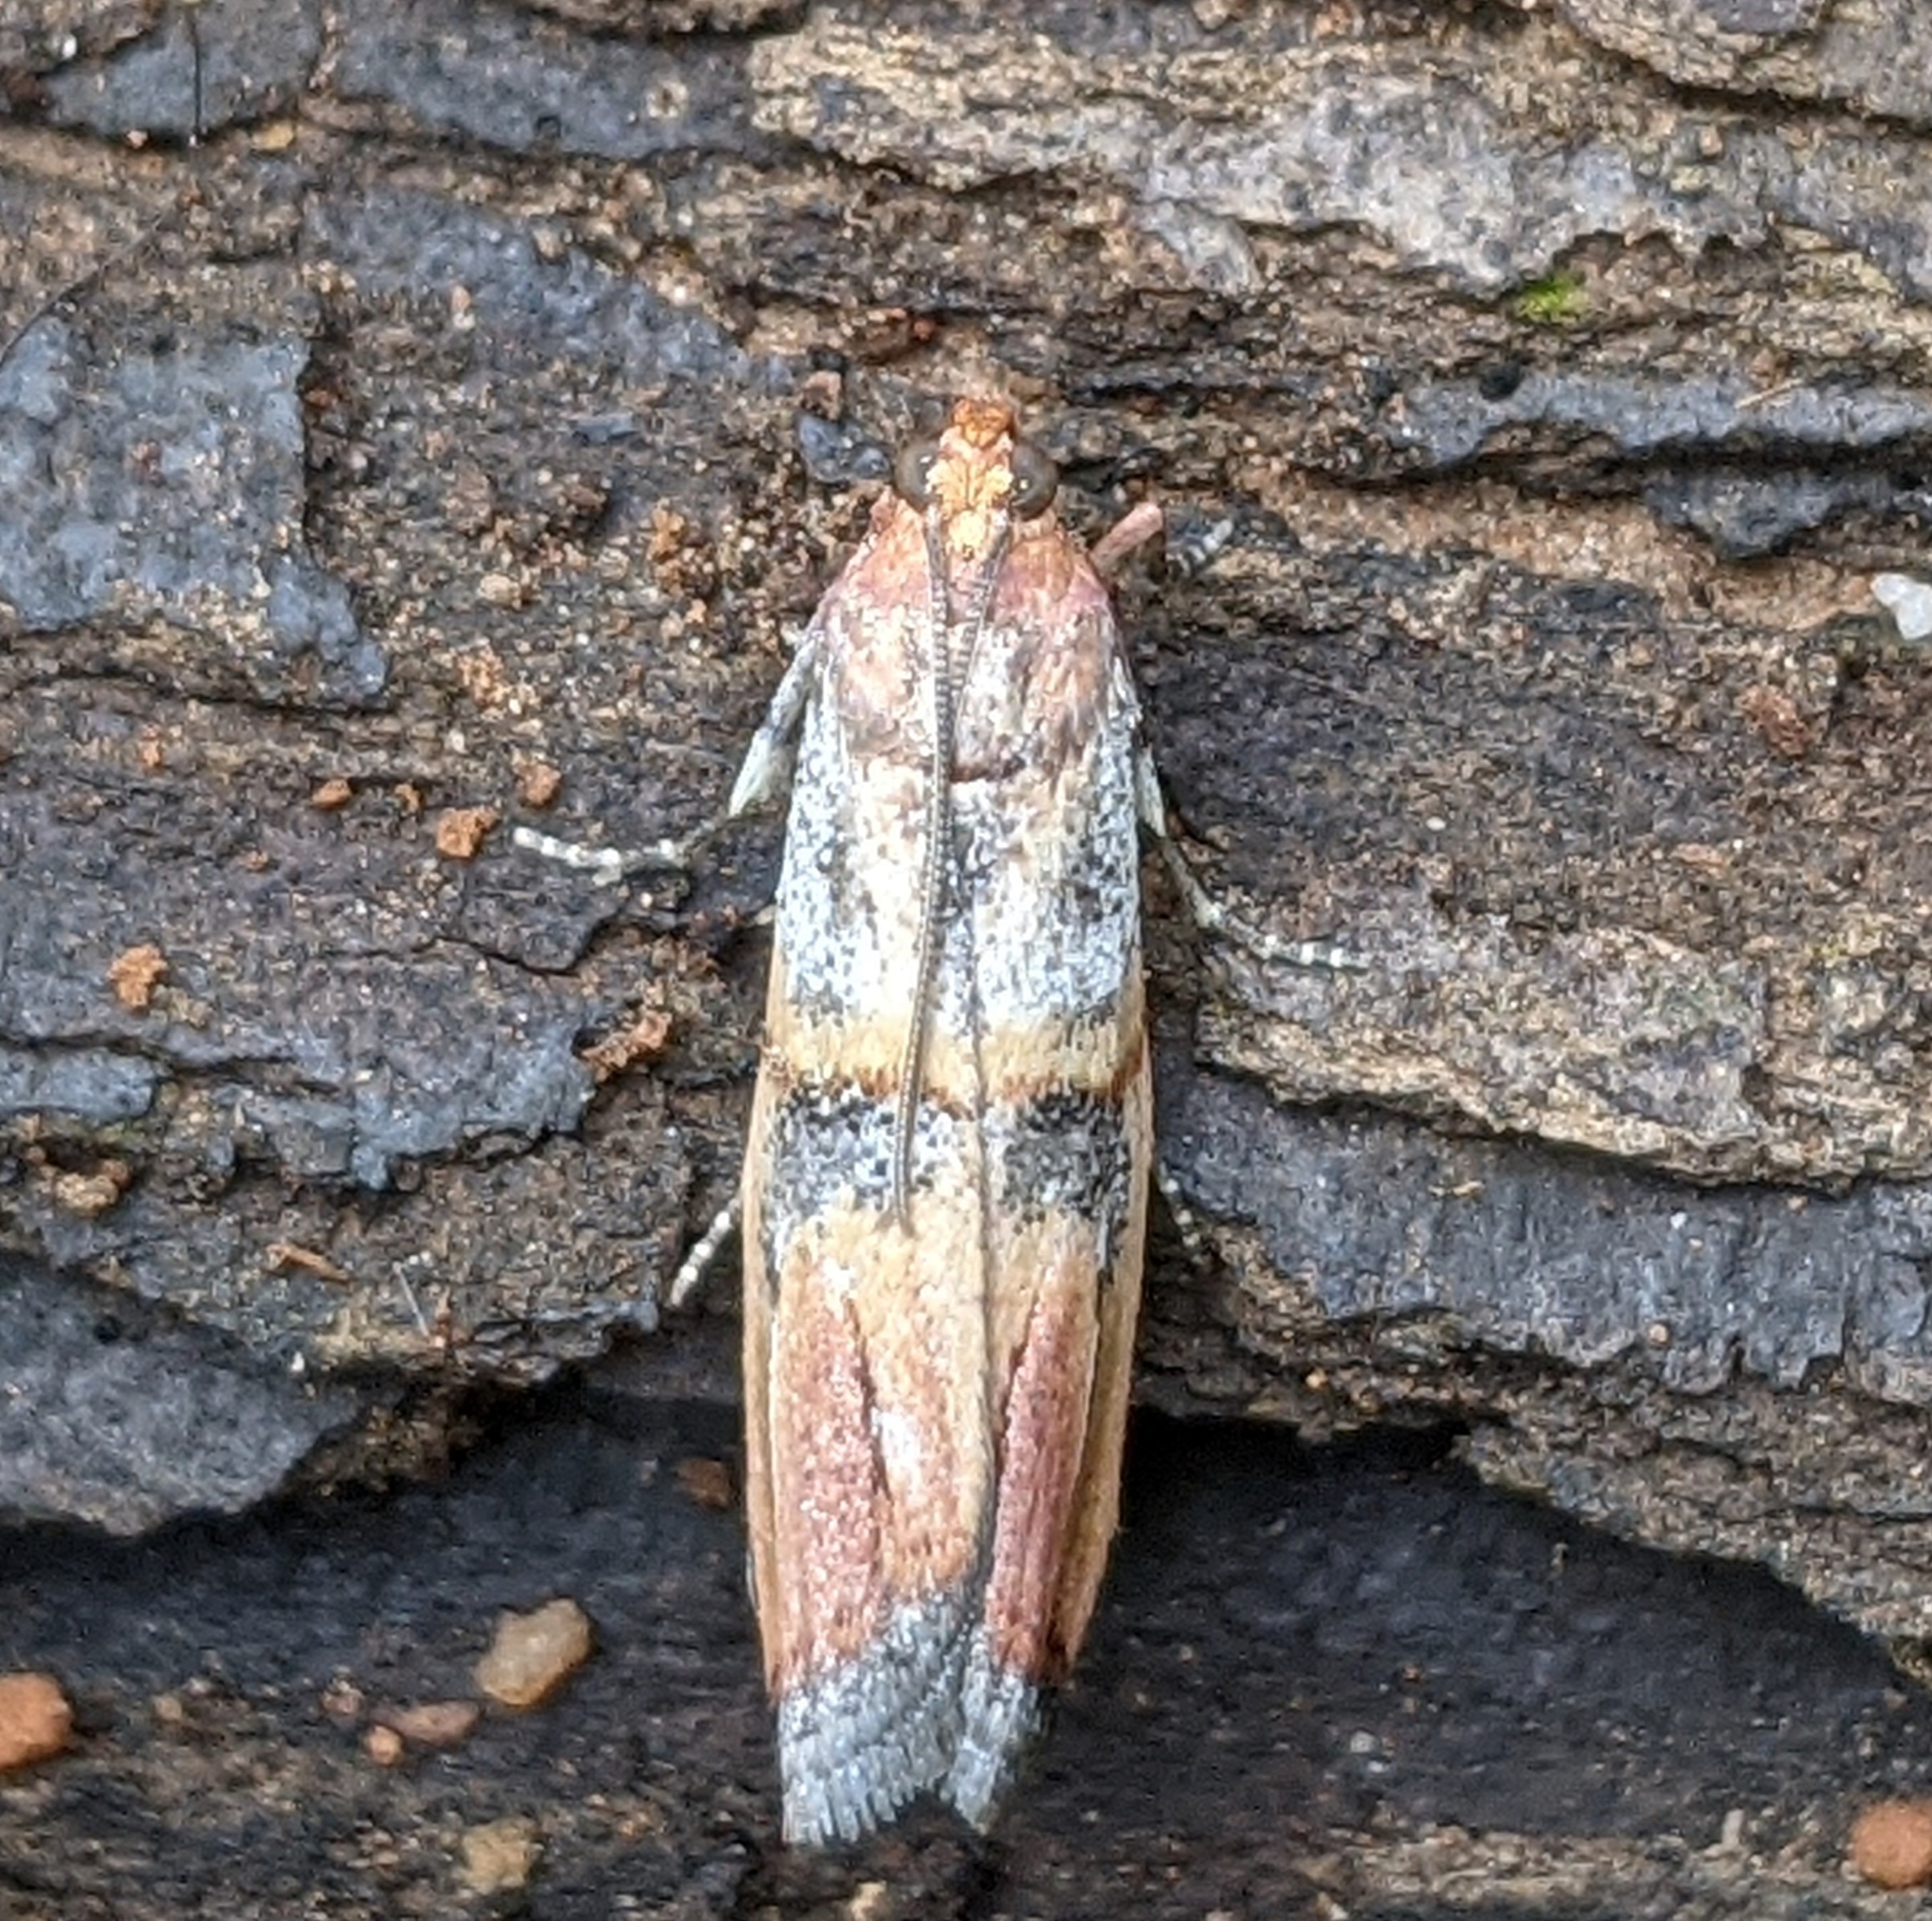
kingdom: Animalia
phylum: Arthropoda
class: Insecta
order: Lepidoptera
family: Pyralidae
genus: Dasypyga
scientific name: Dasypyga alternosquamella
